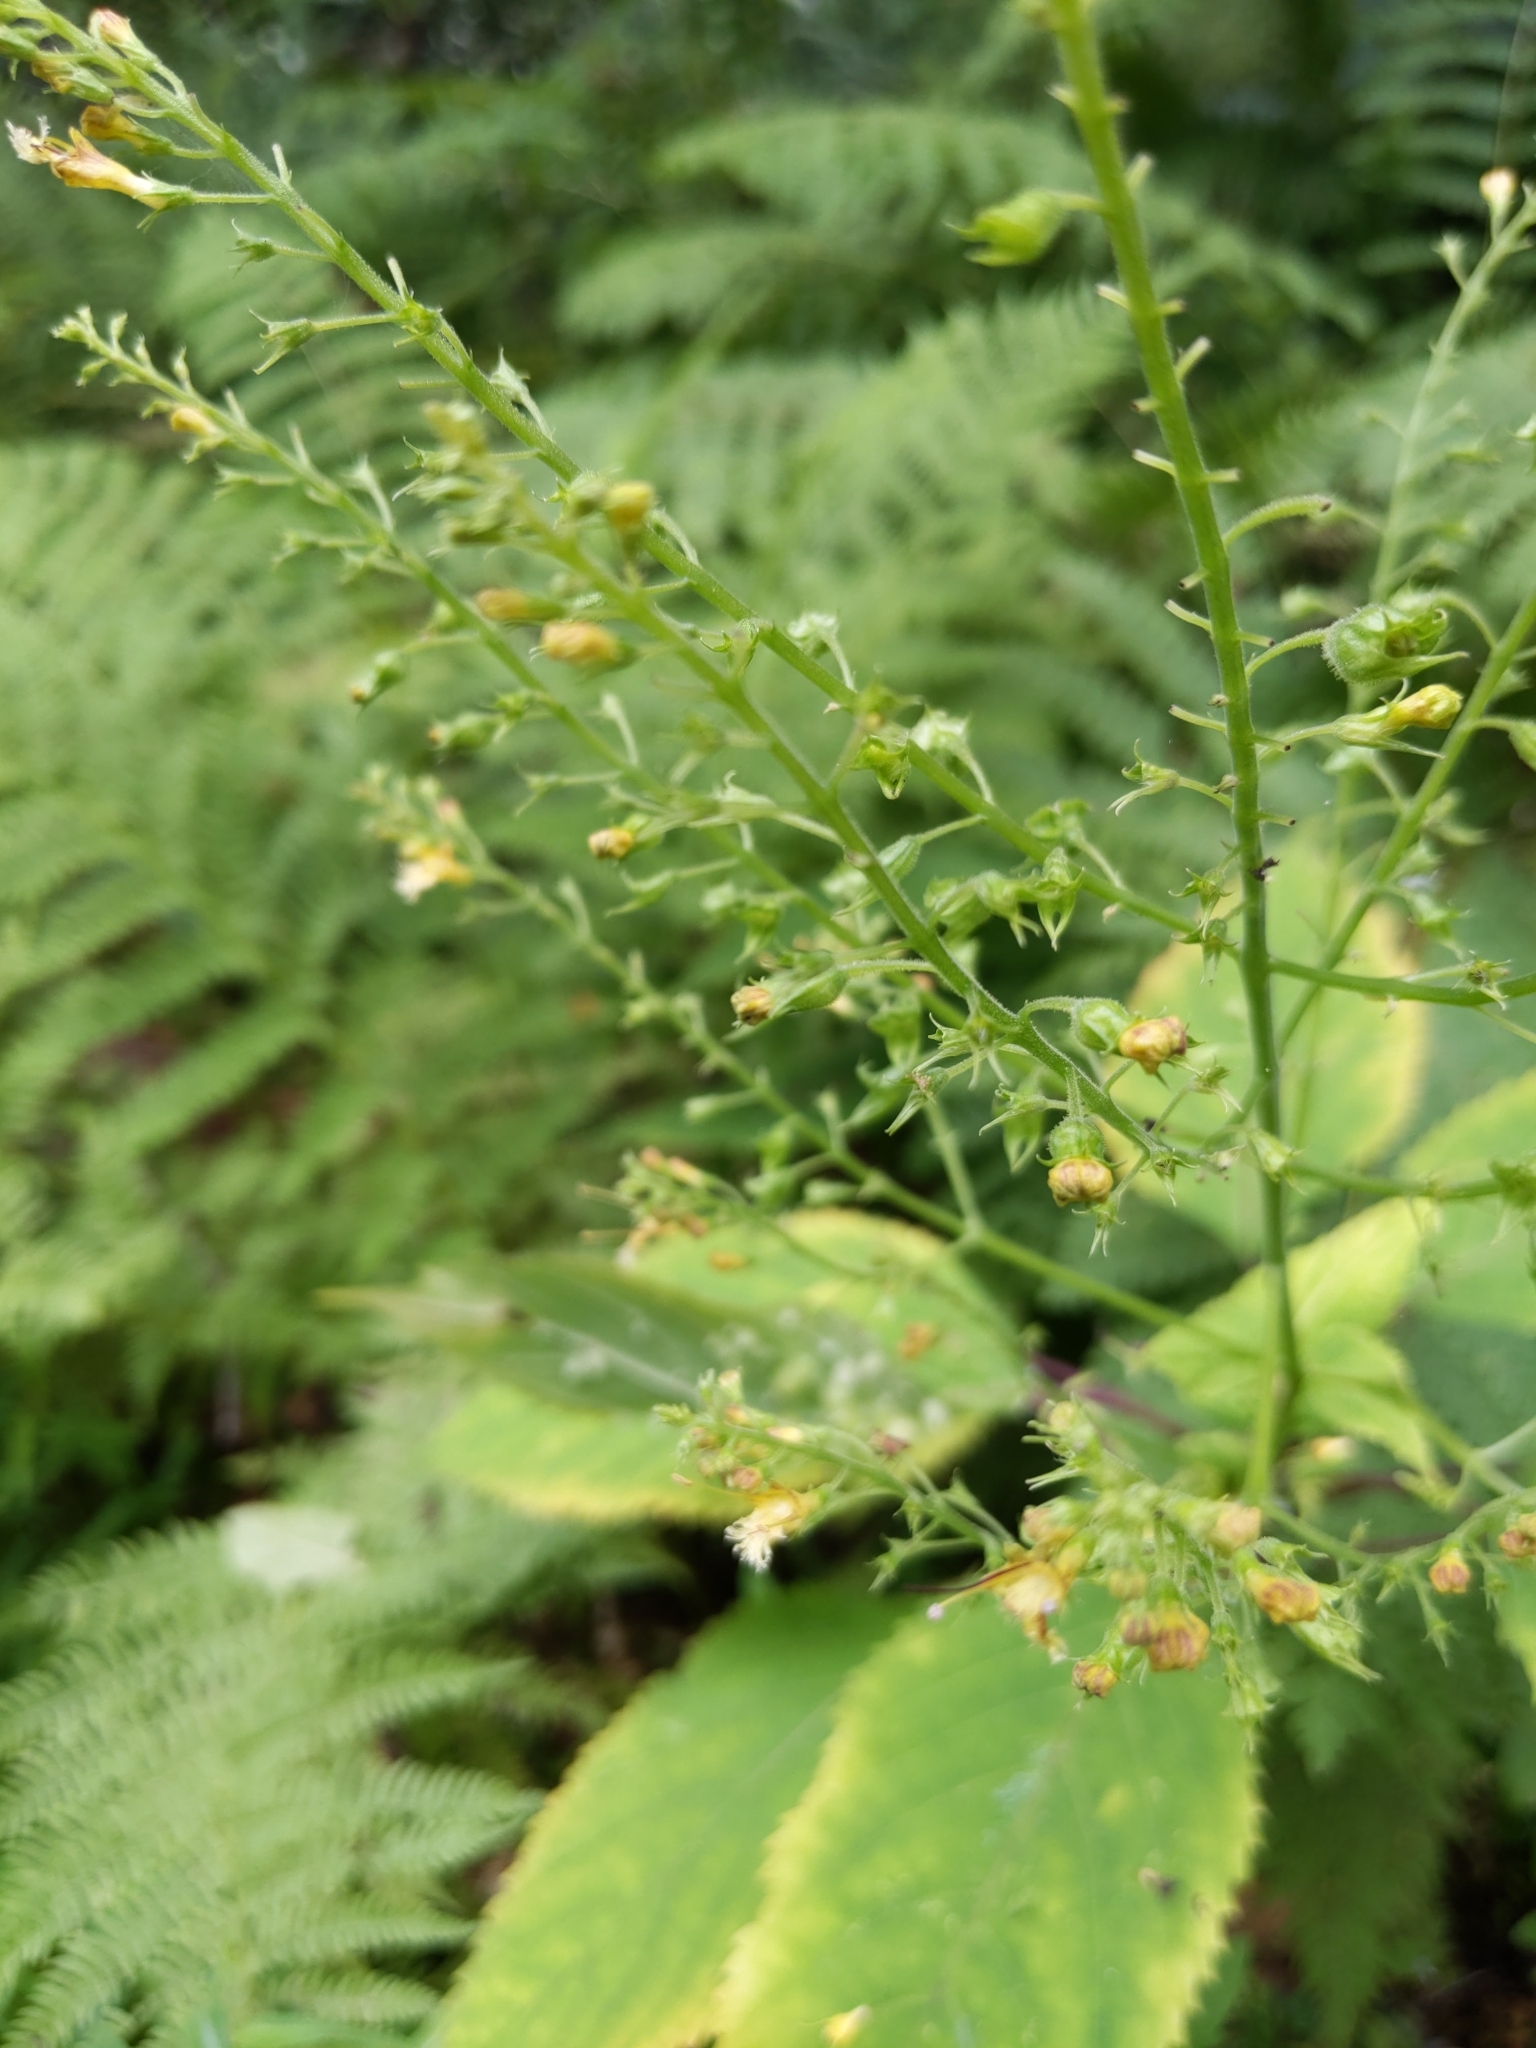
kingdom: Plantae
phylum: Tracheophyta
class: Magnoliopsida
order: Lamiales
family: Lamiaceae
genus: Collinsonia
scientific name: Collinsonia canadensis
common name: Northern horsebalm
